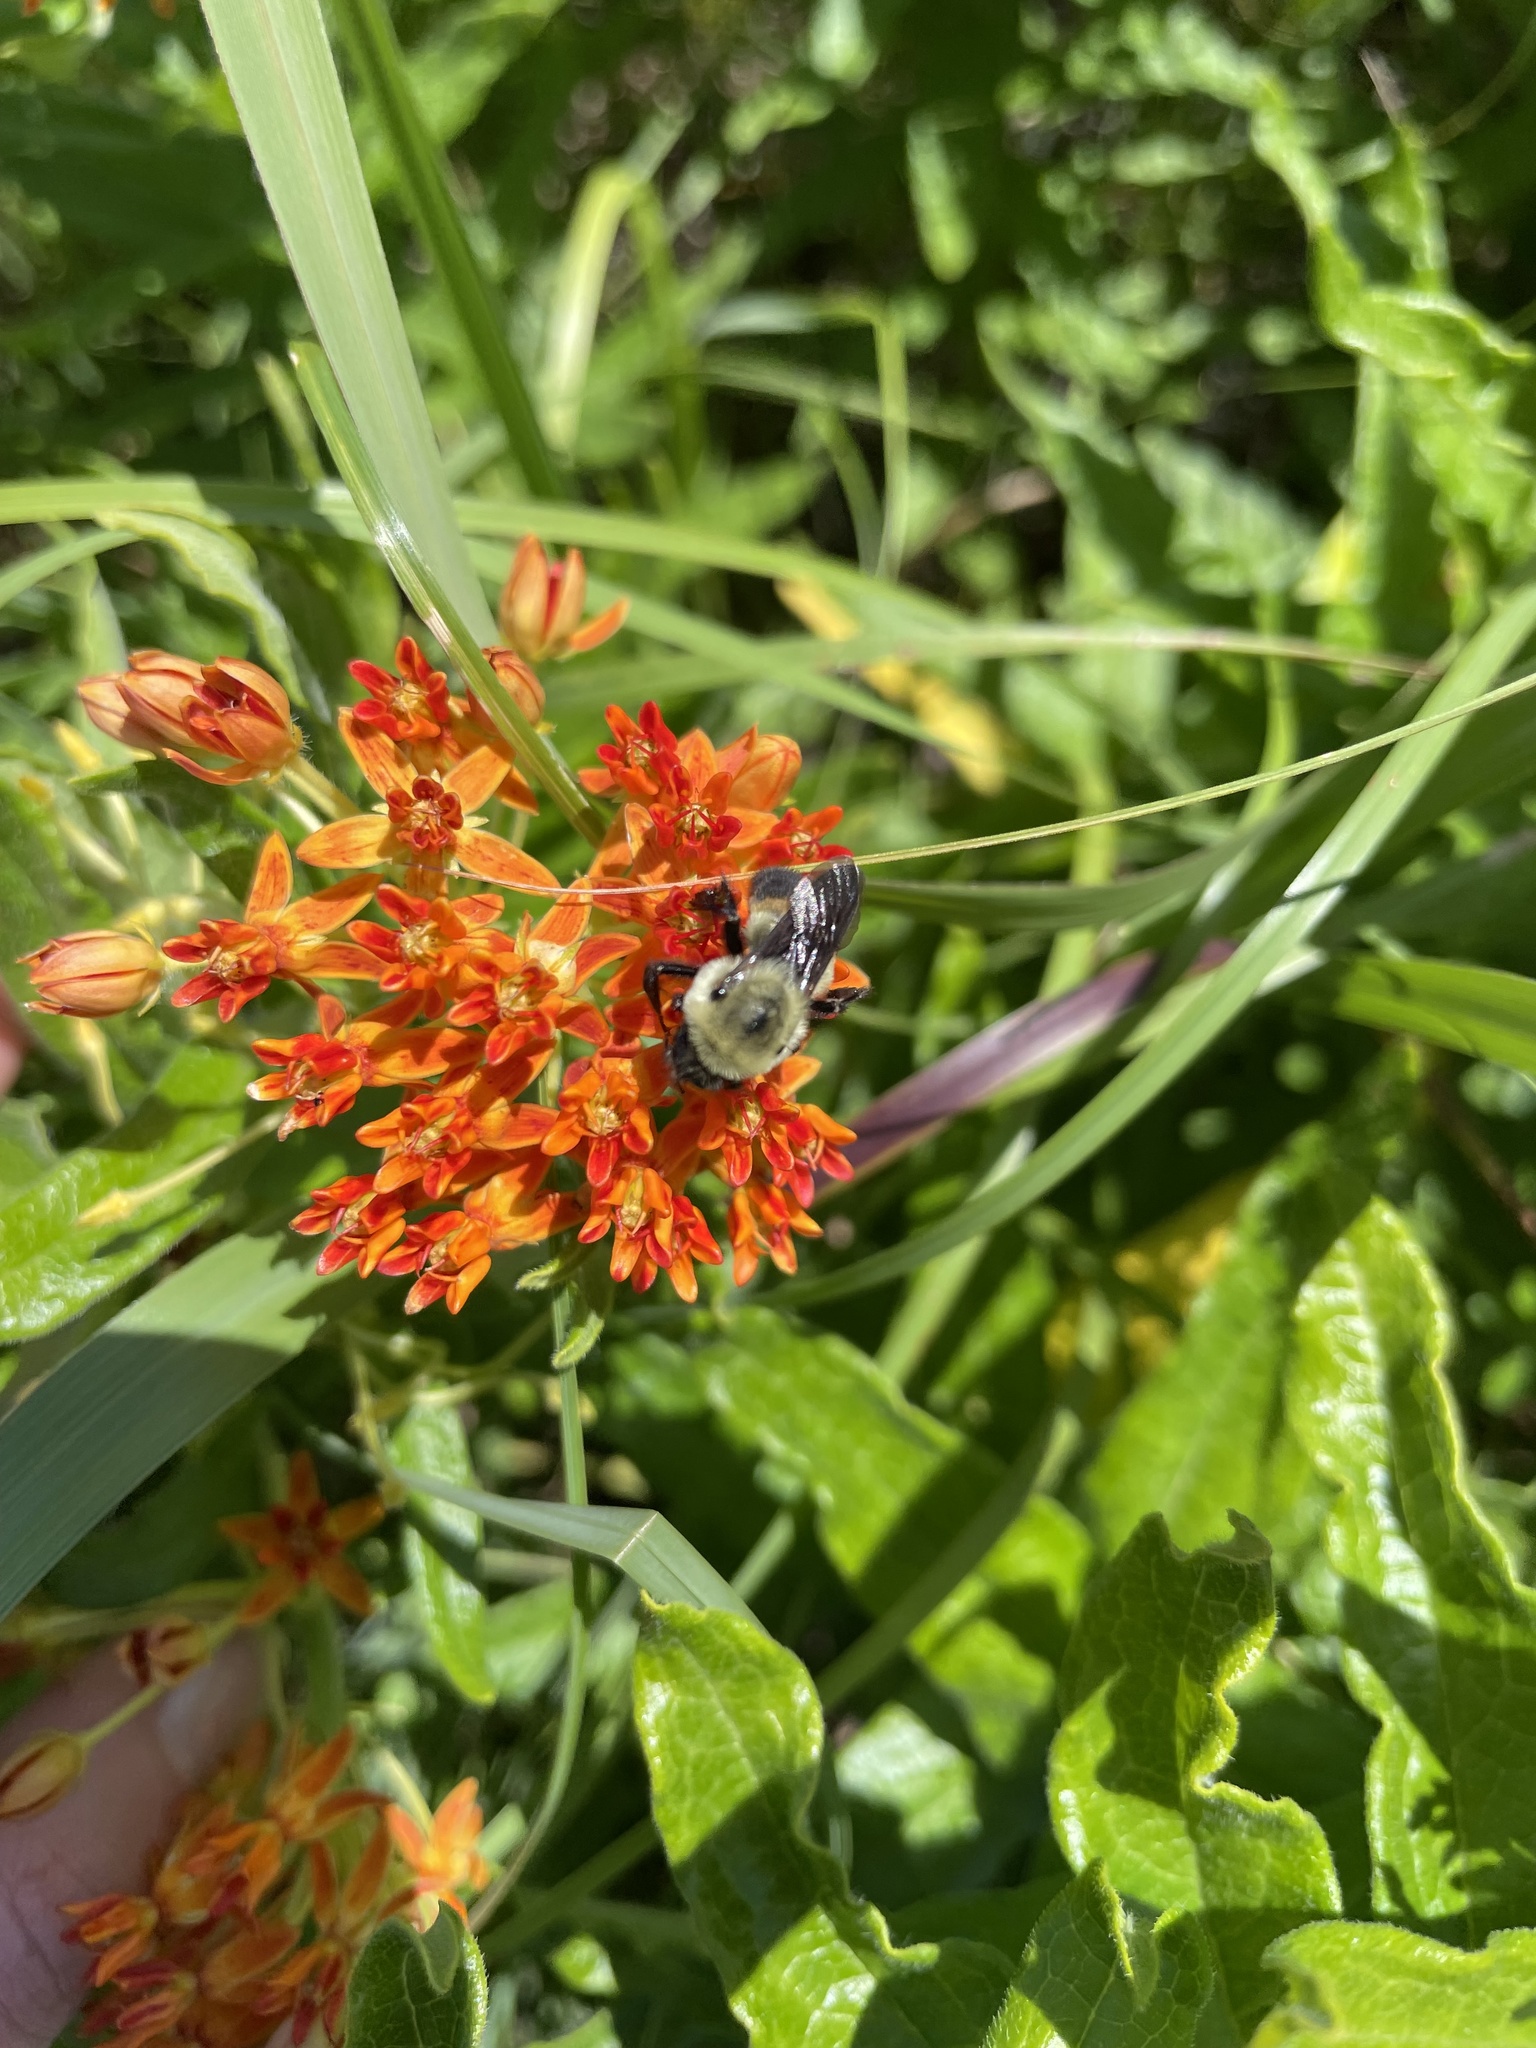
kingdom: Animalia
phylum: Arthropoda
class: Insecta
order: Hymenoptera
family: Apidae
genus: Bombus
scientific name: Bombus griseocollis
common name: Brown-belted bumble bee
